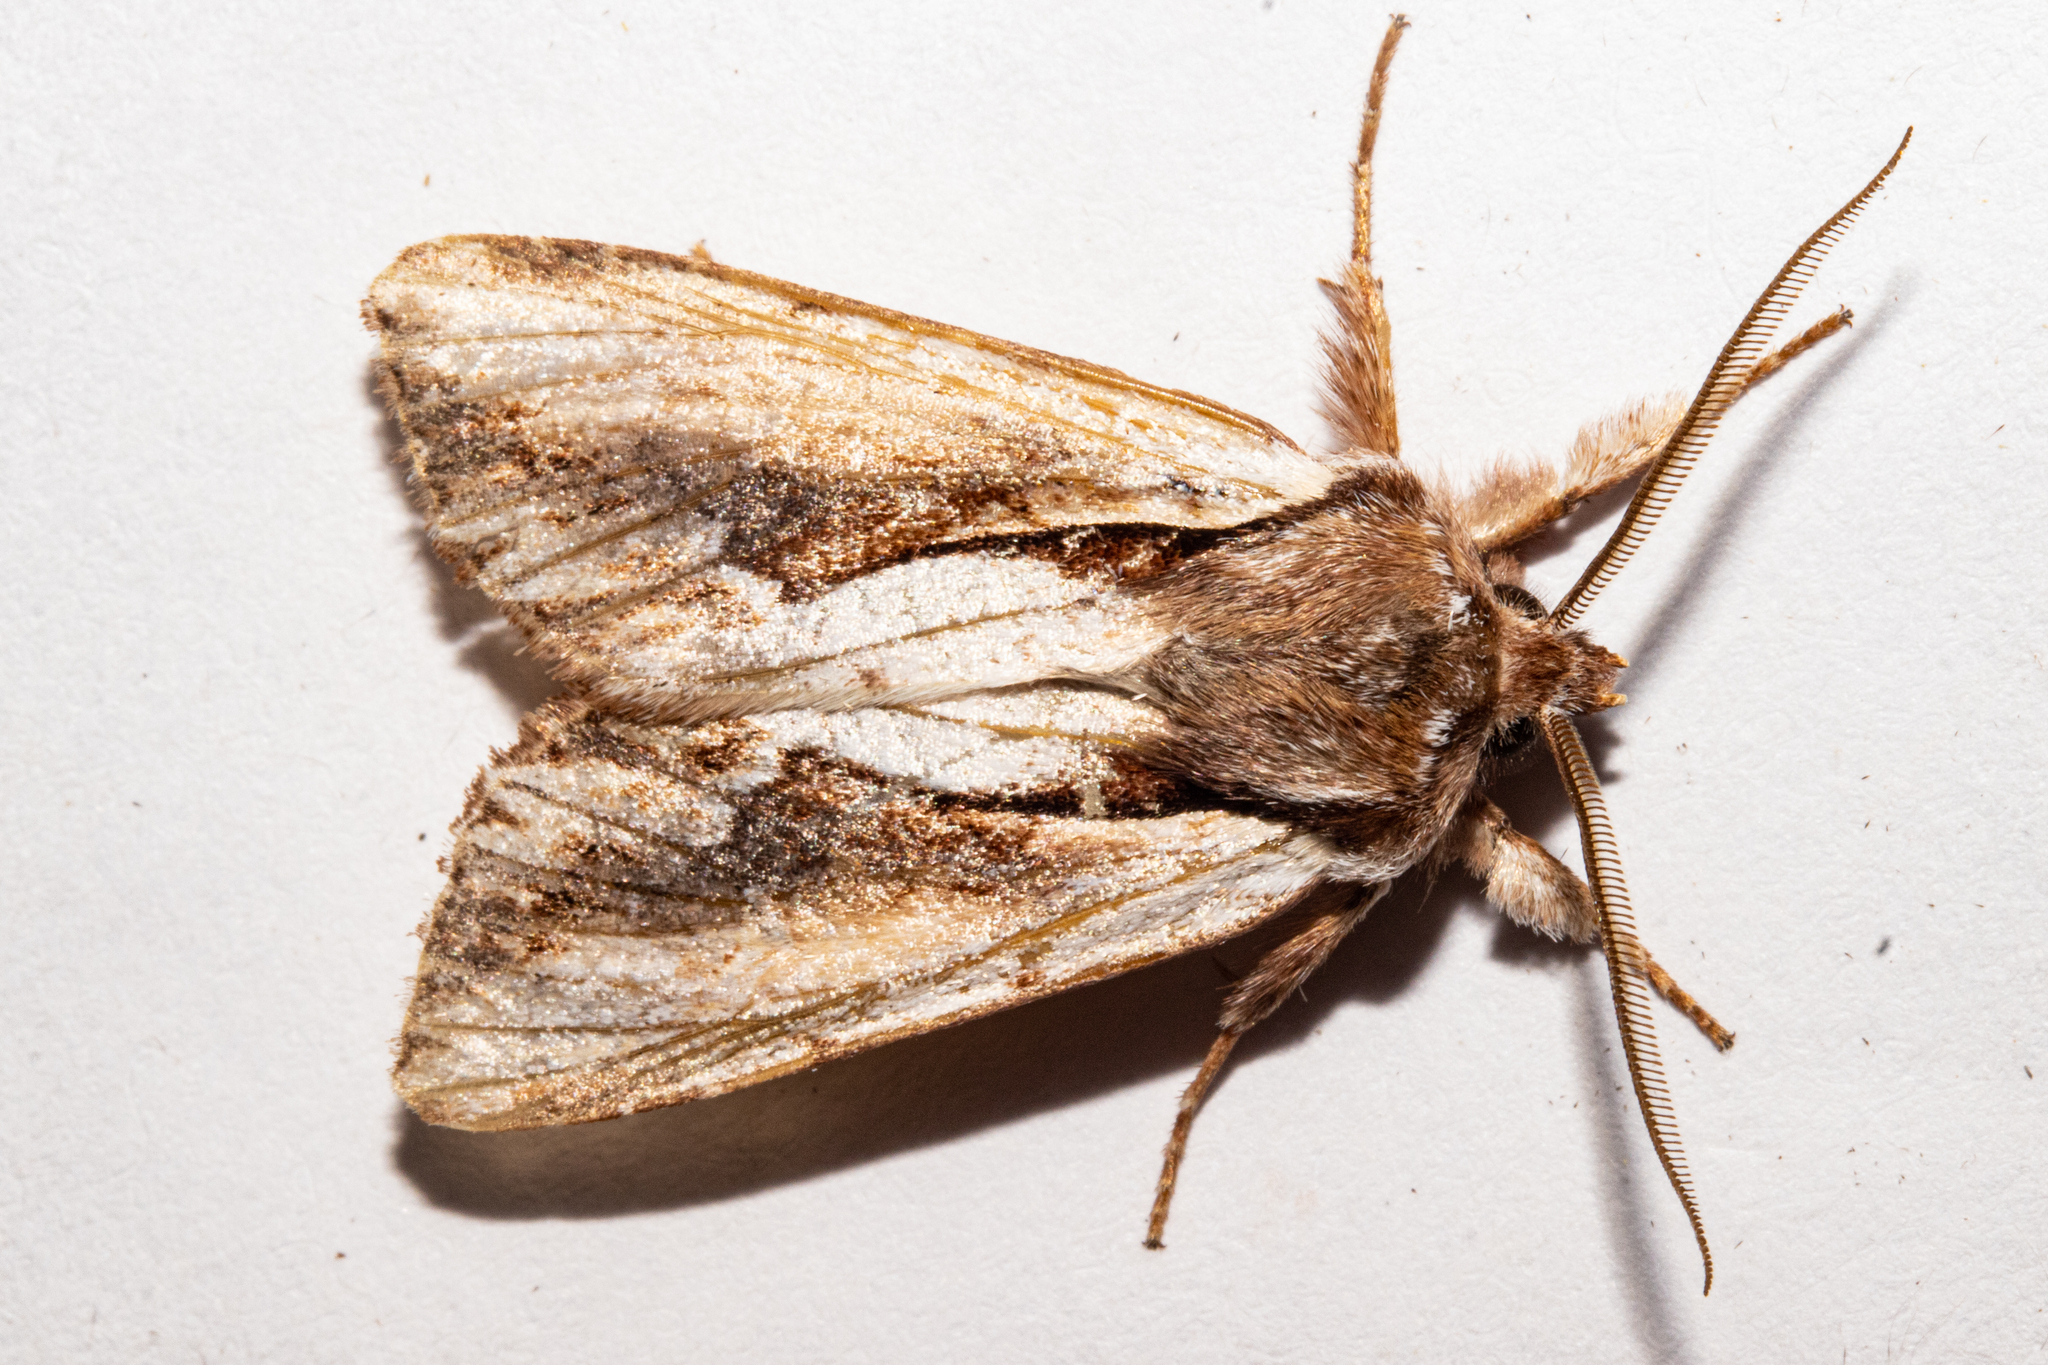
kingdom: Animalia
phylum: Arthropoda
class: Insecta
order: Lepidoptera
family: Noctuidae
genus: Ichneutica
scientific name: Ichneutica
